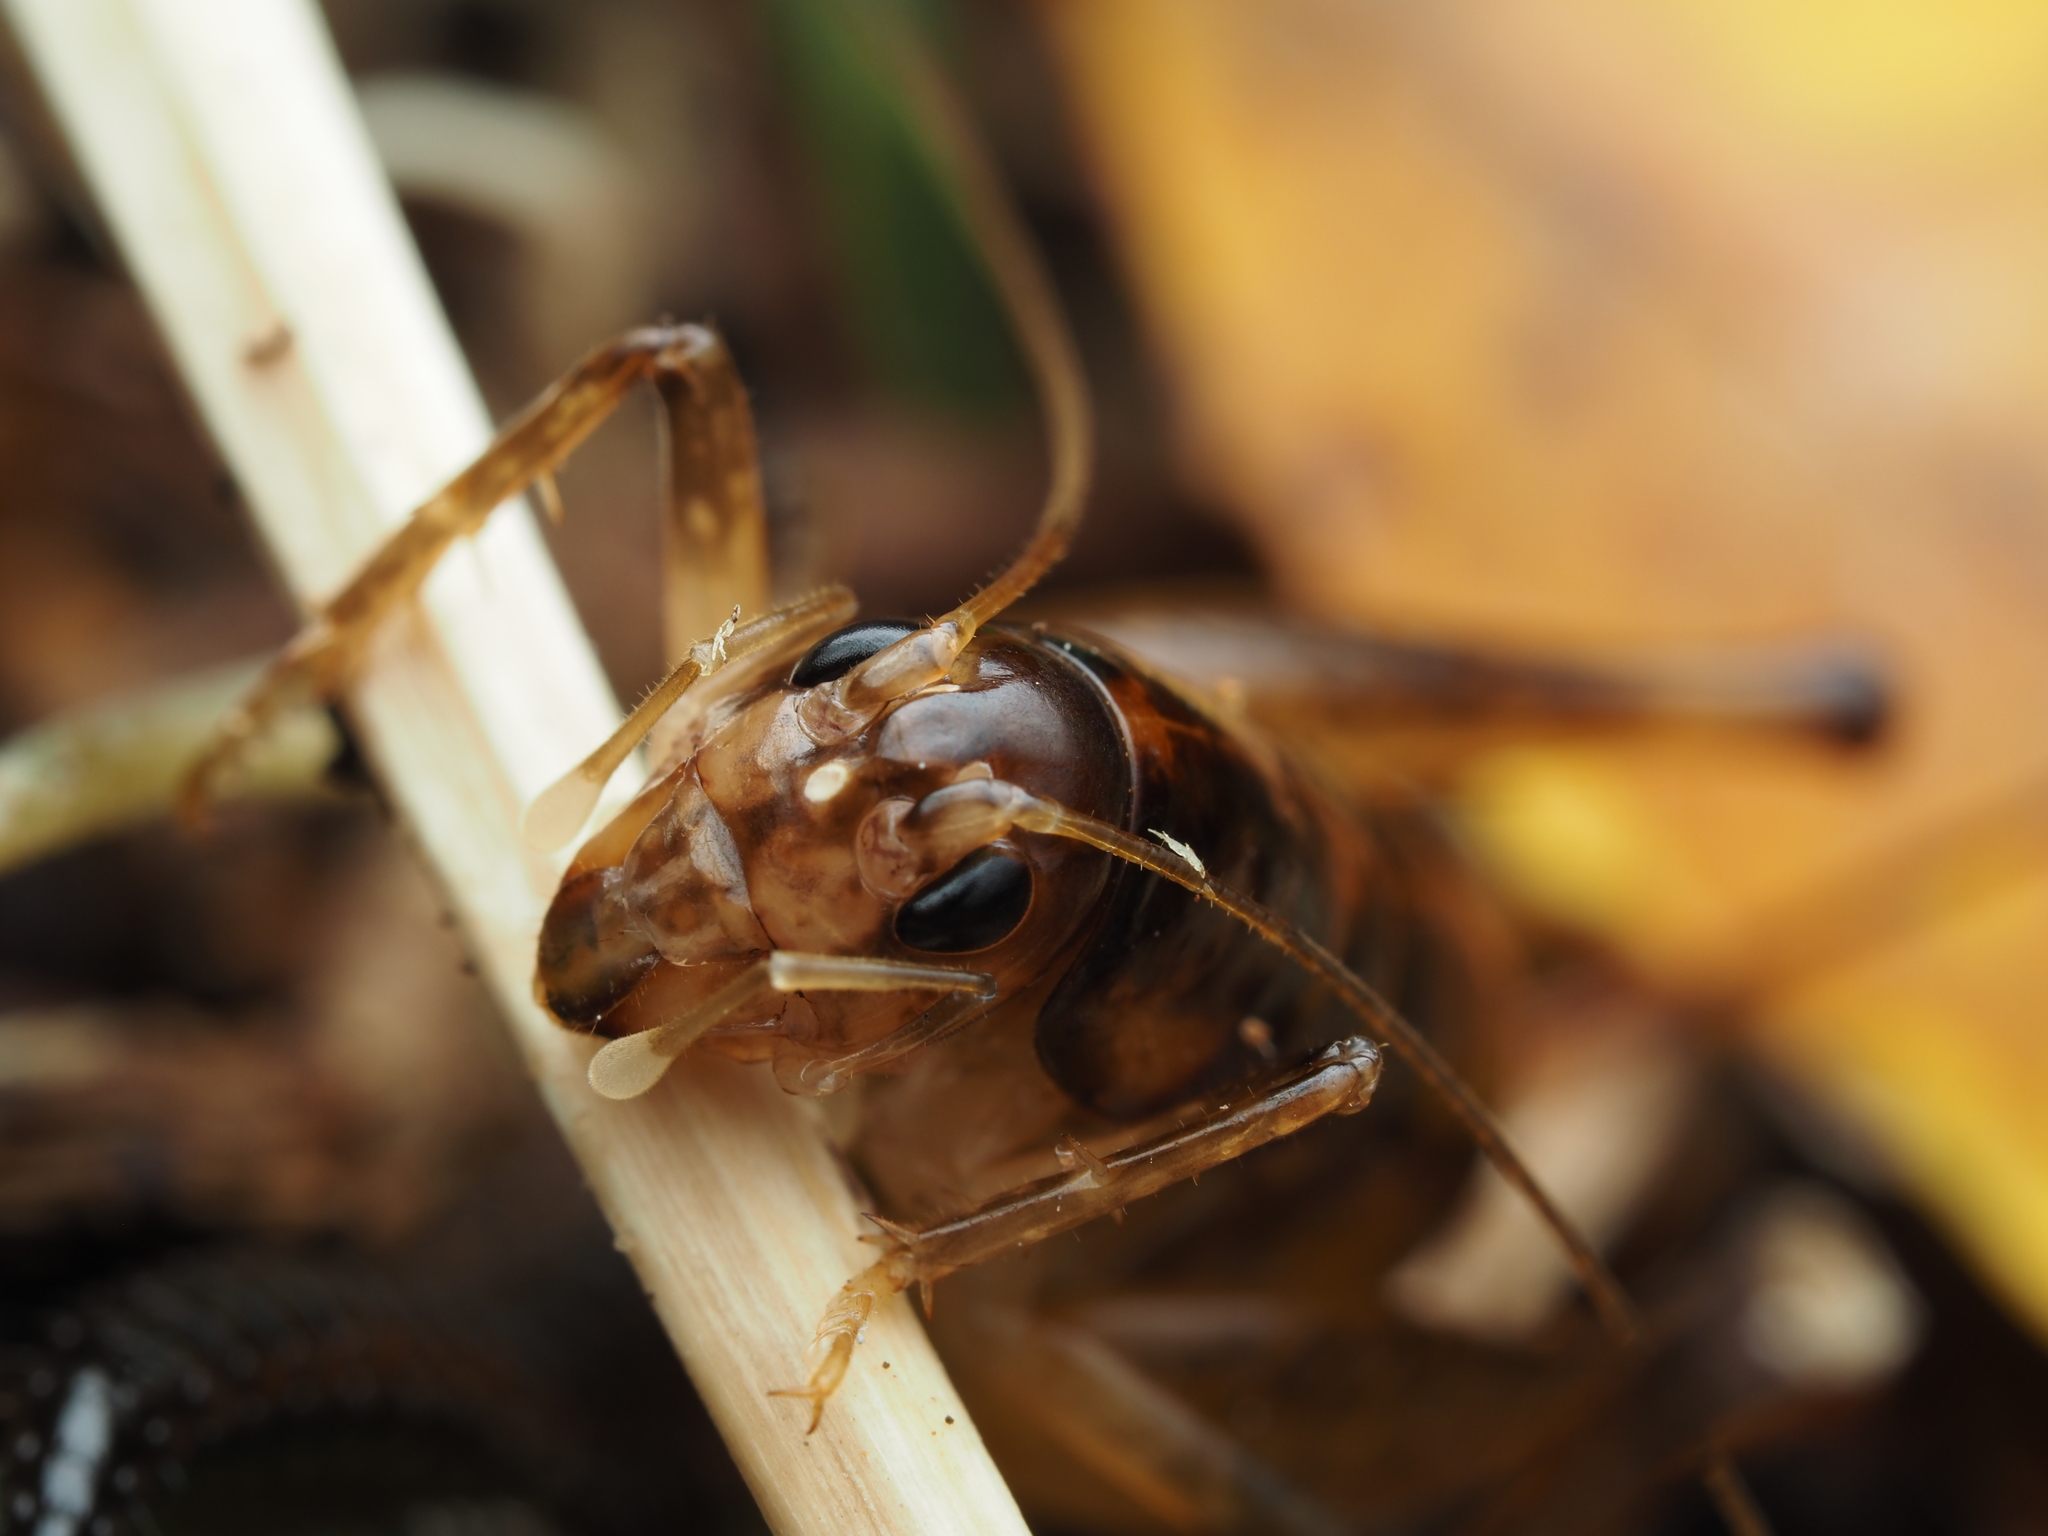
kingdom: Animalia
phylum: Arthropoda
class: Insecta
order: Orthoptera
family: Anostostomatidae
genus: Hemiandrus
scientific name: Hemiandrus brucei
